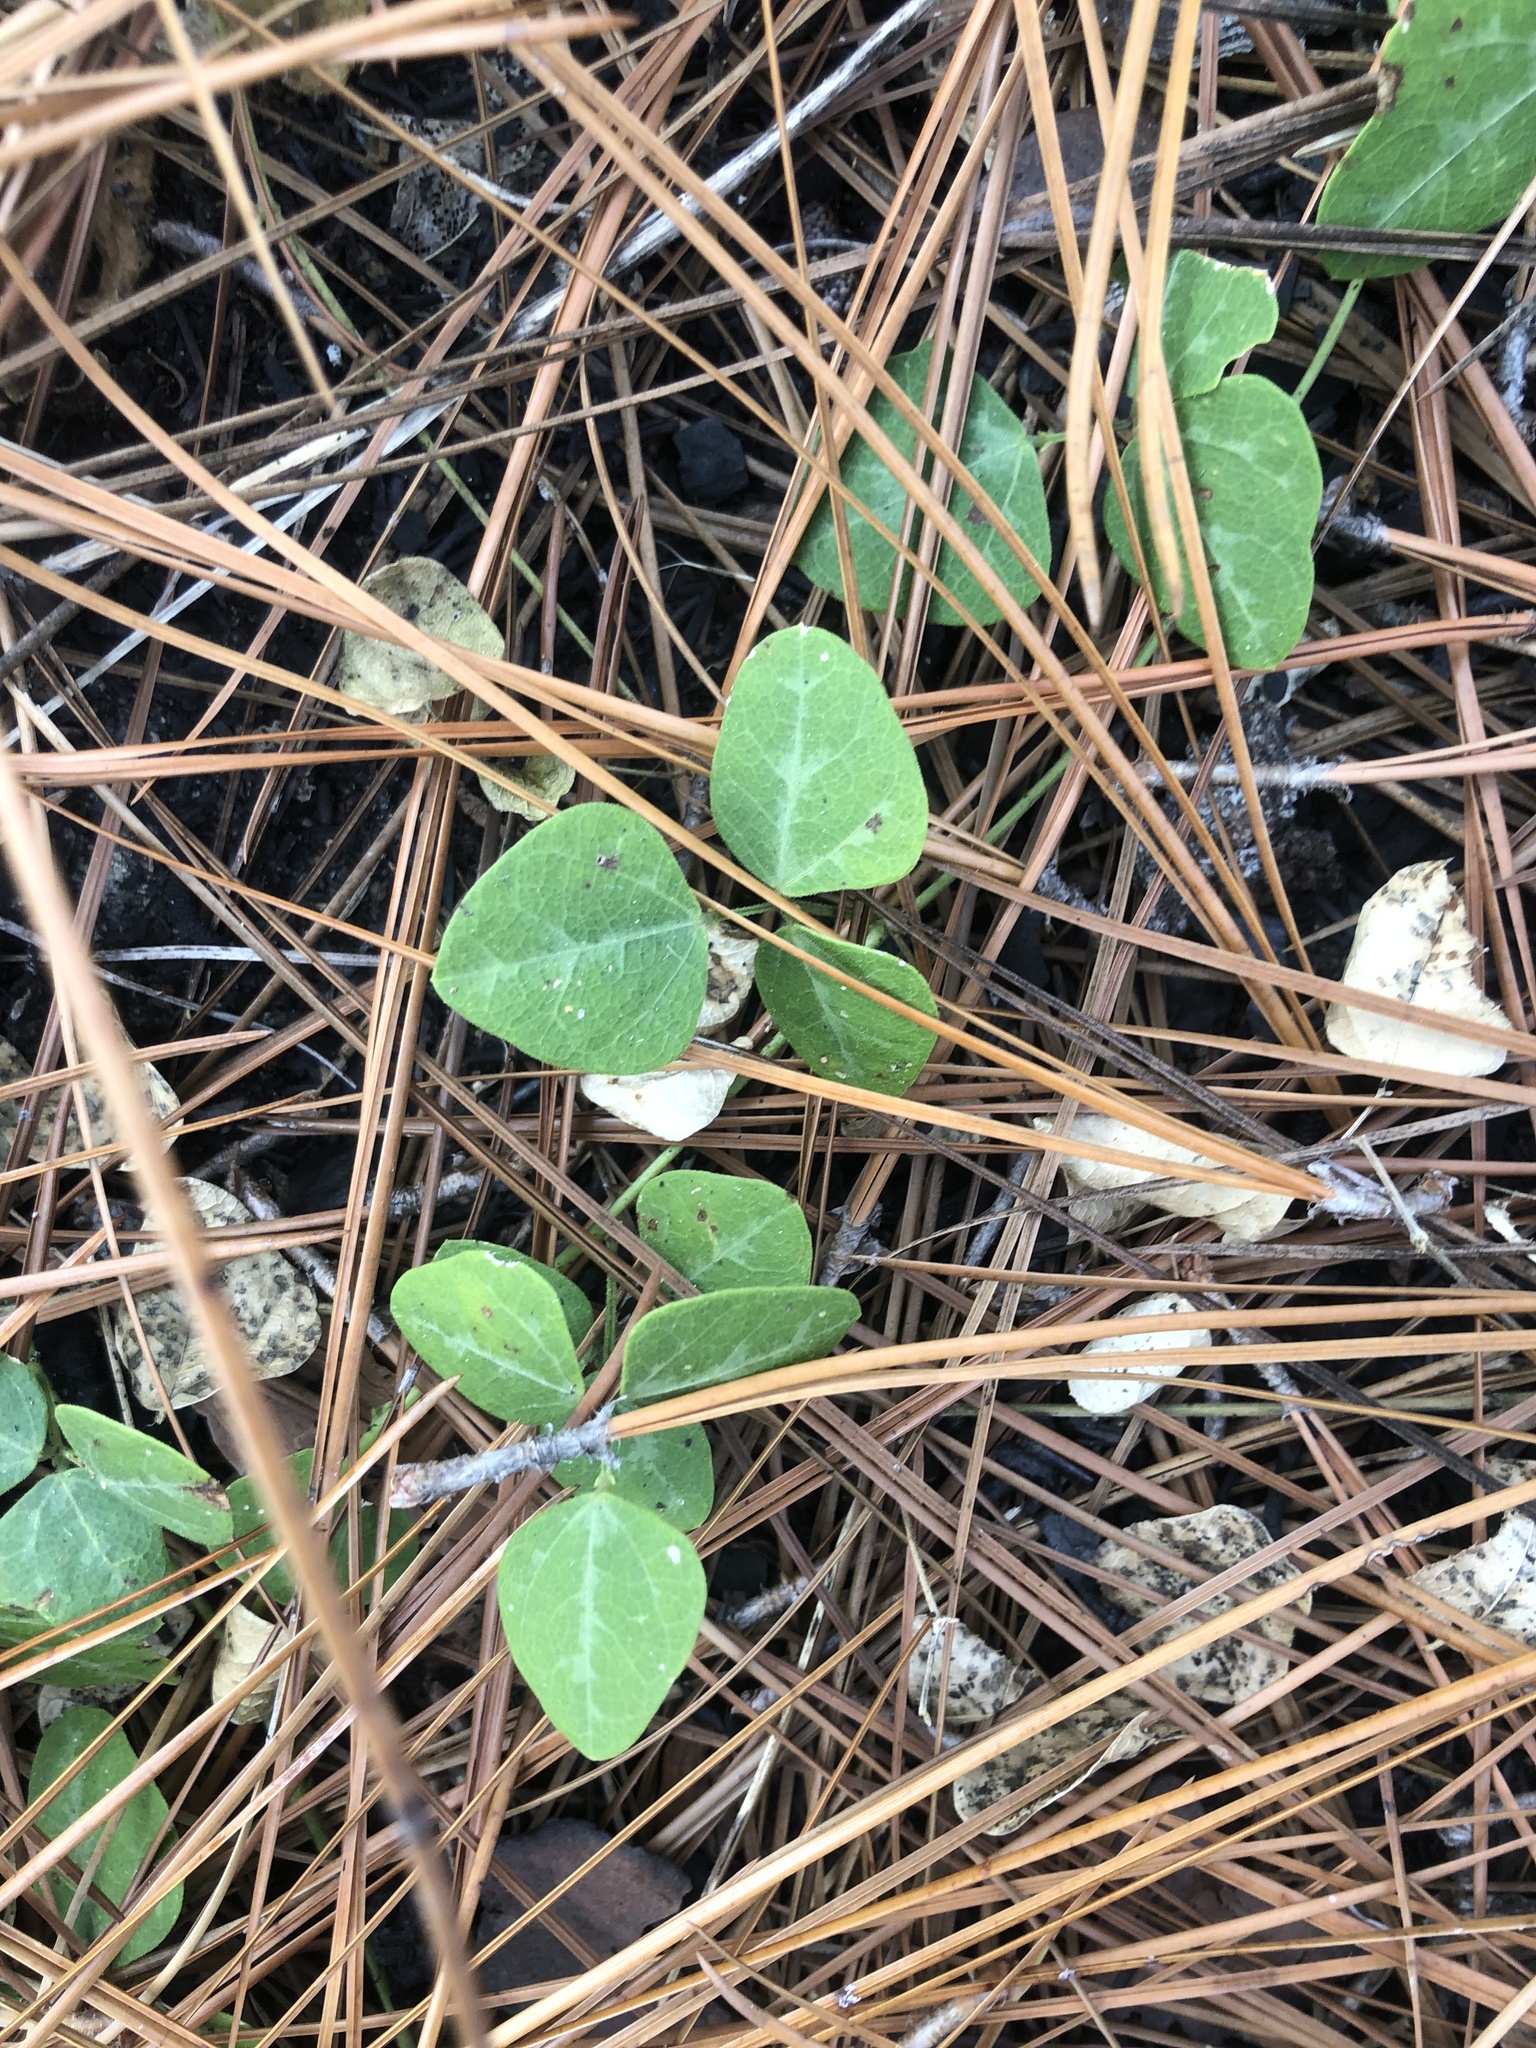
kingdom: Plantae
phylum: Tracheophyta
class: Magnoliopsida
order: Fabales
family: Fabaceae
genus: Phaseolus
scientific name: Phaseolus sinuatus
